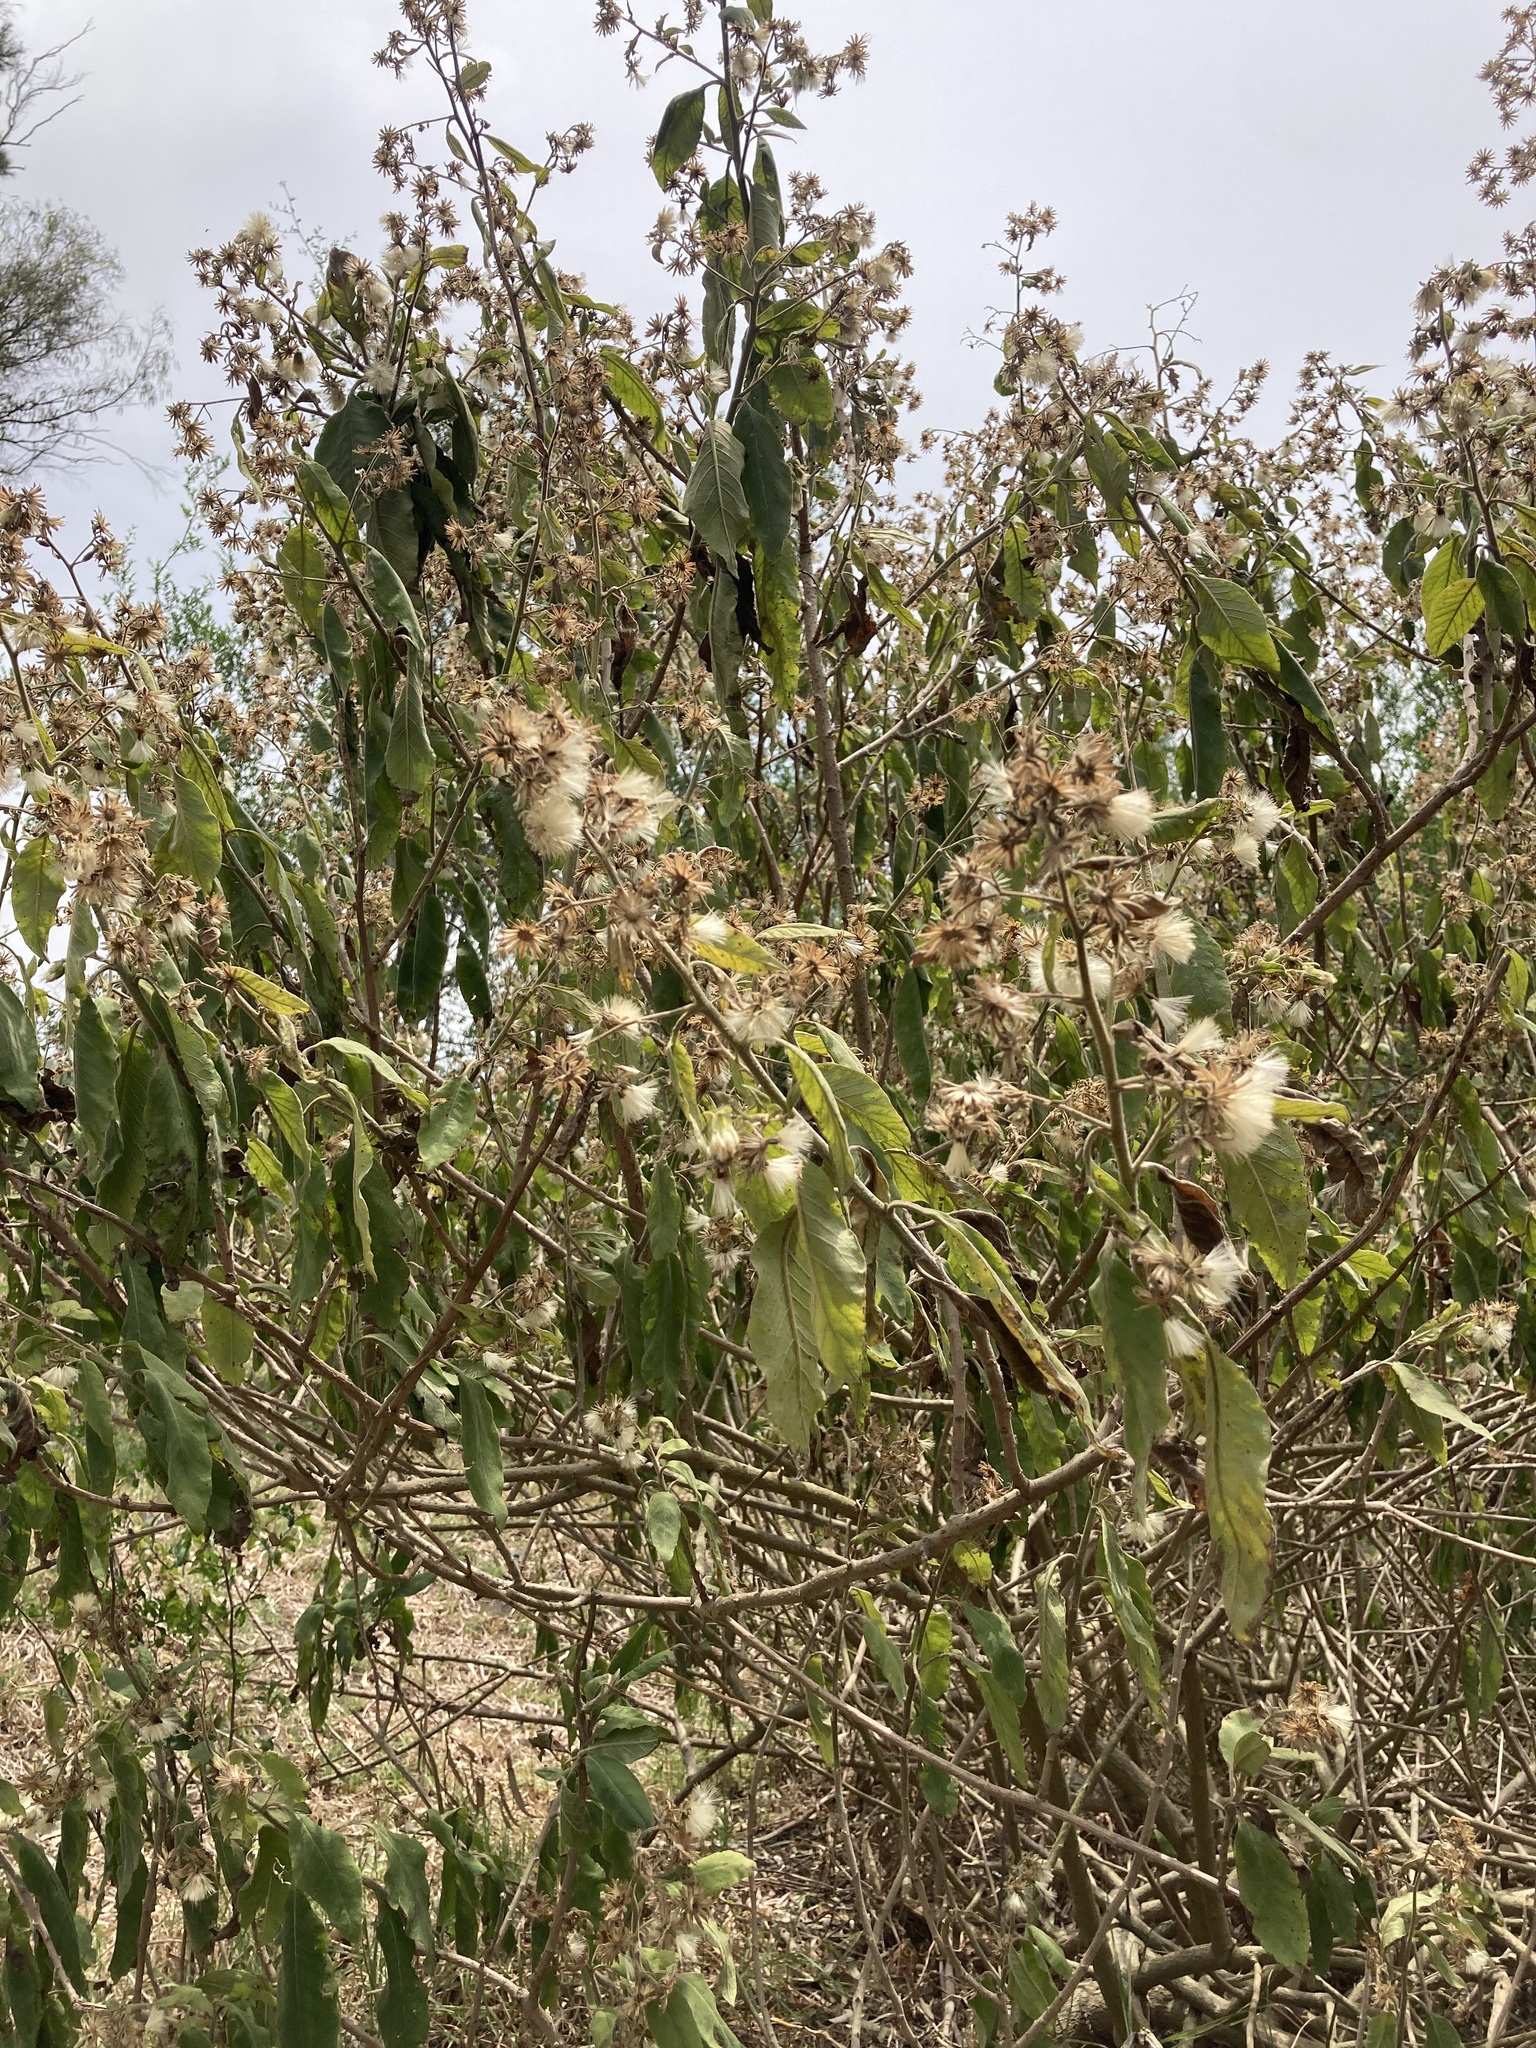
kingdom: Plantae
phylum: Tracheophyta
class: Magnoliopsida
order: Asterales
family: Asteraceae
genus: Trixis
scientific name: Trixis praestans
